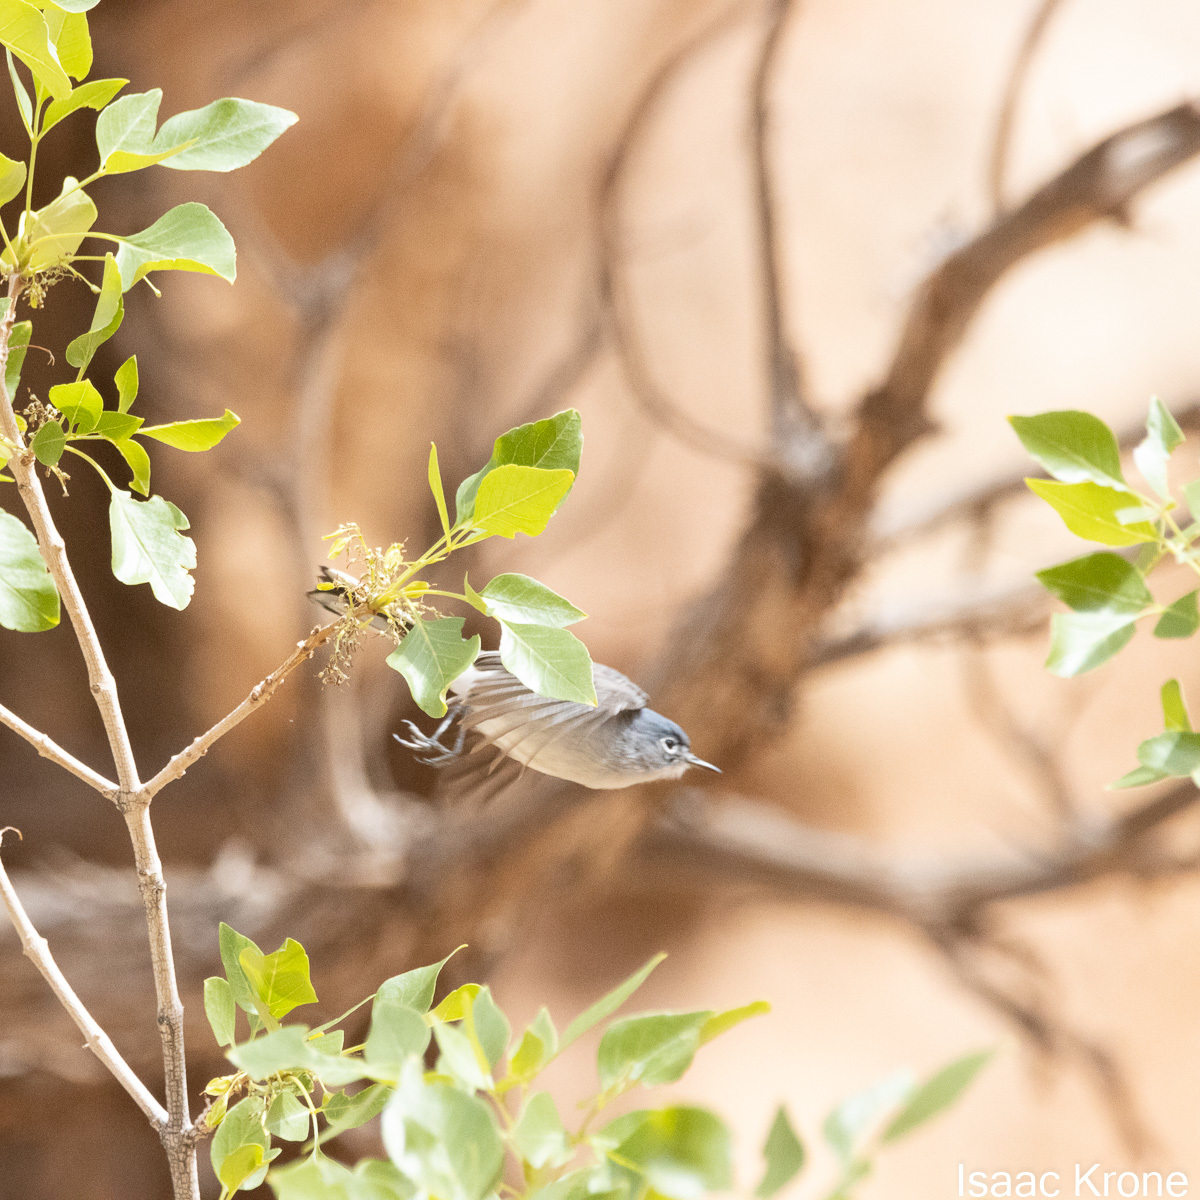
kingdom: Animalia
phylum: Chordata
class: Aves
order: Passeriformes
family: Polioptilidae
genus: Polioptila
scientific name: Polioptila caerulea
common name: Blue-gray gnatcatcher
